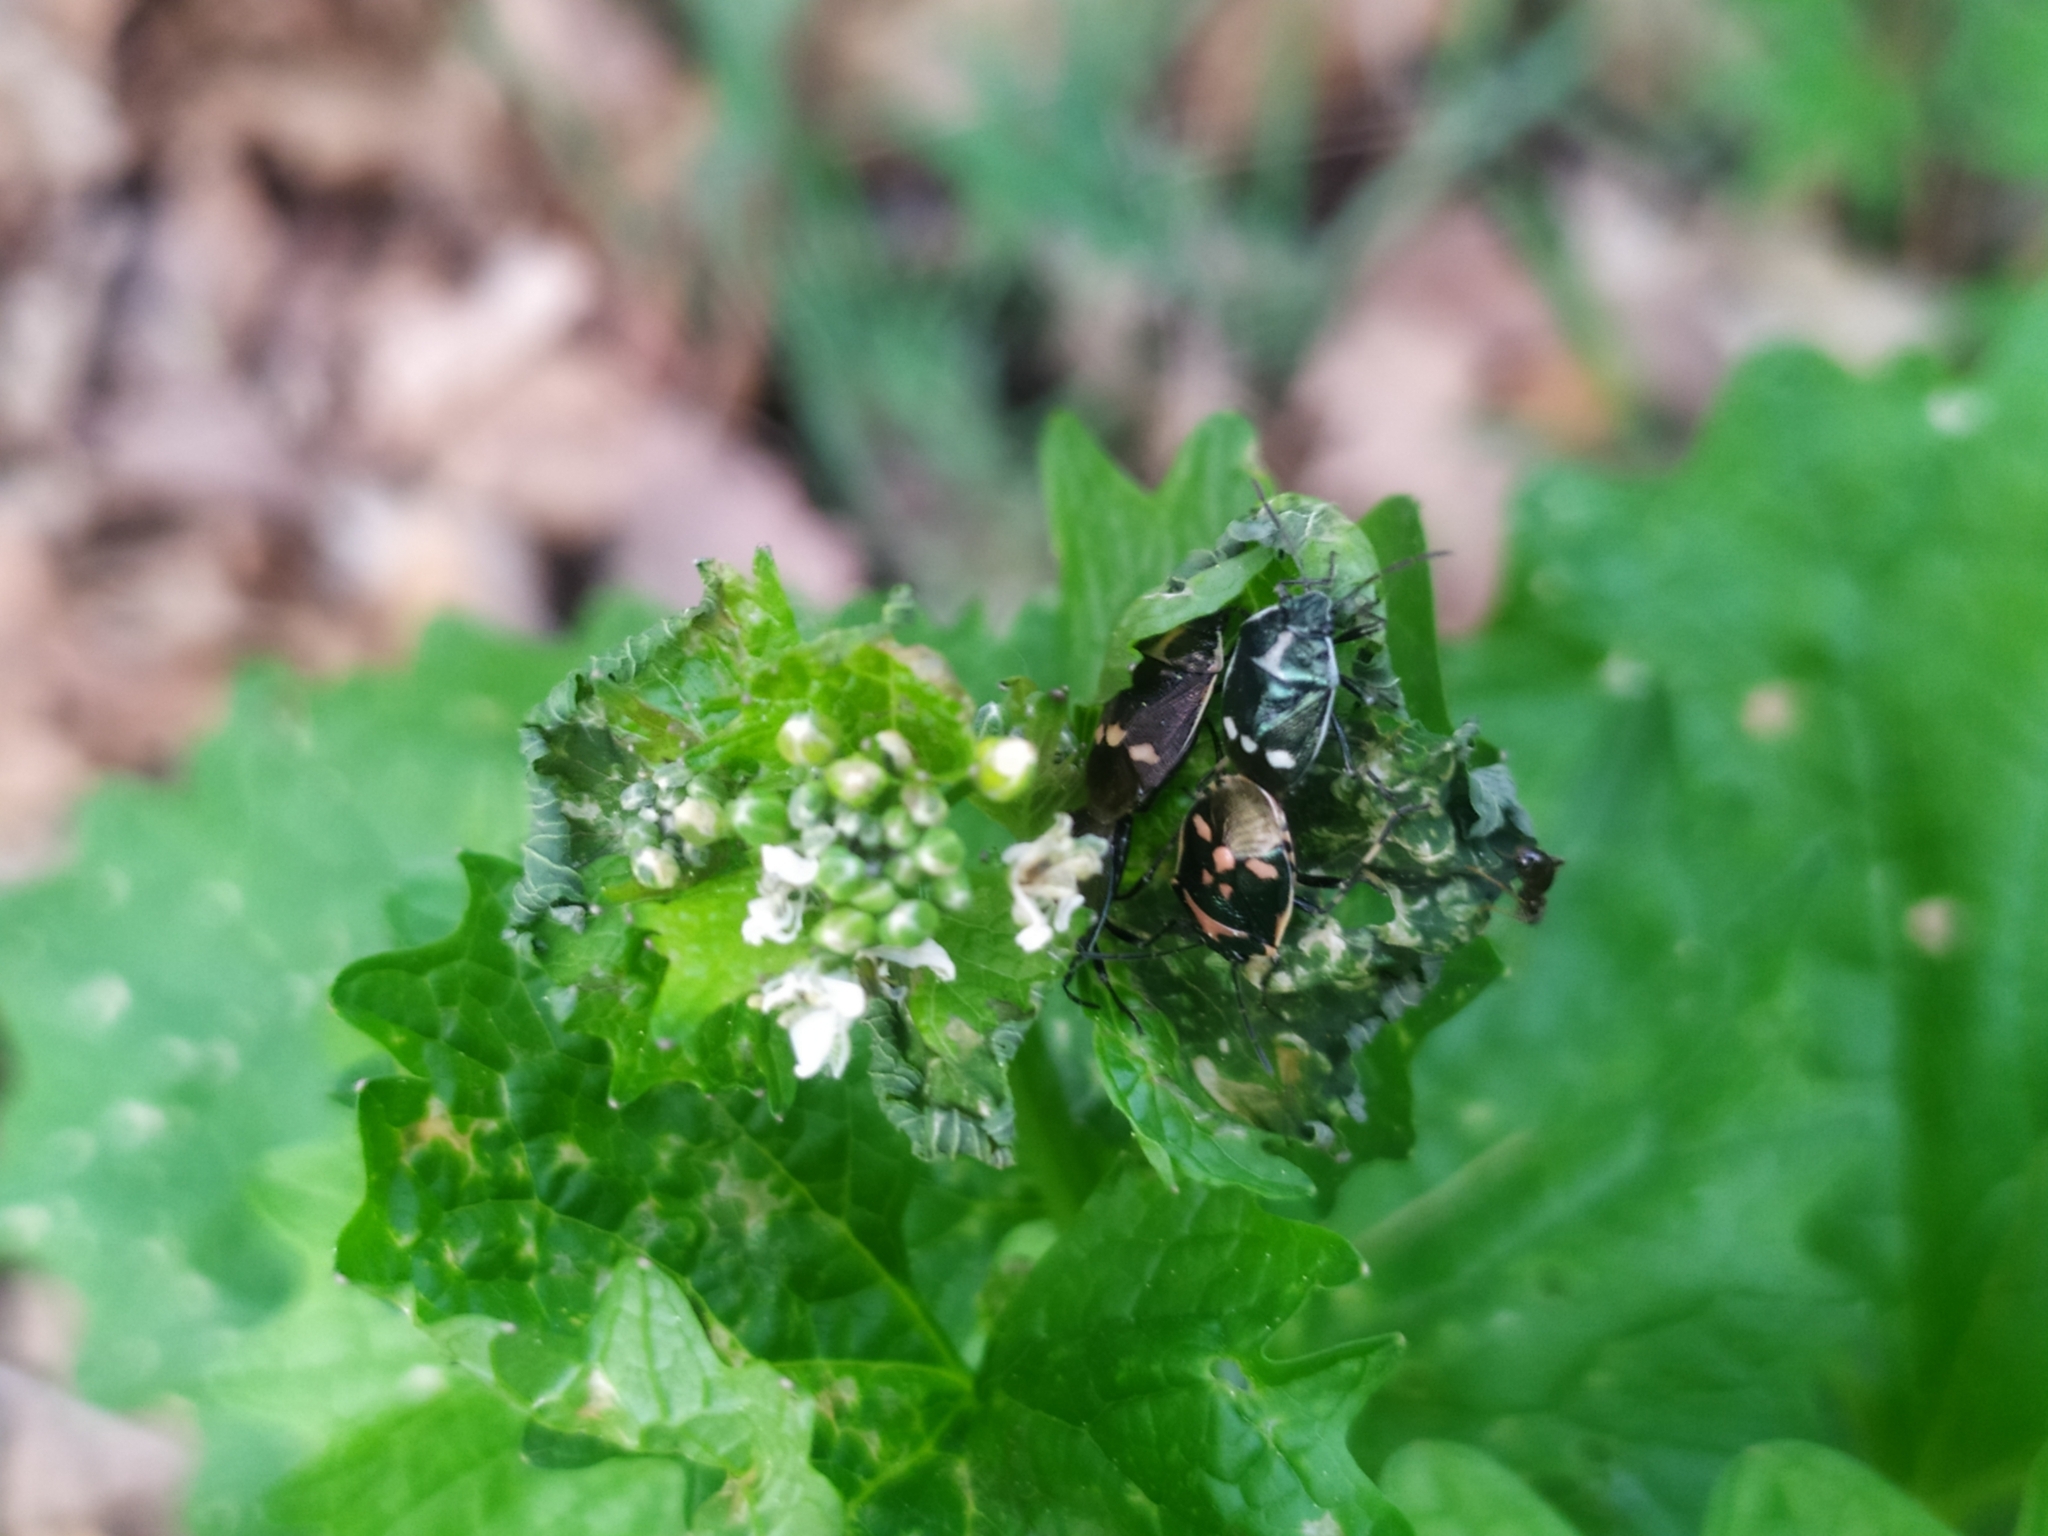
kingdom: Animalia
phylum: Arthropoda
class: Insecta
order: Hemiptera
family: Pentatomidae
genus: Eurydema
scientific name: Eurydema oleracea
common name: Cabbage bug
